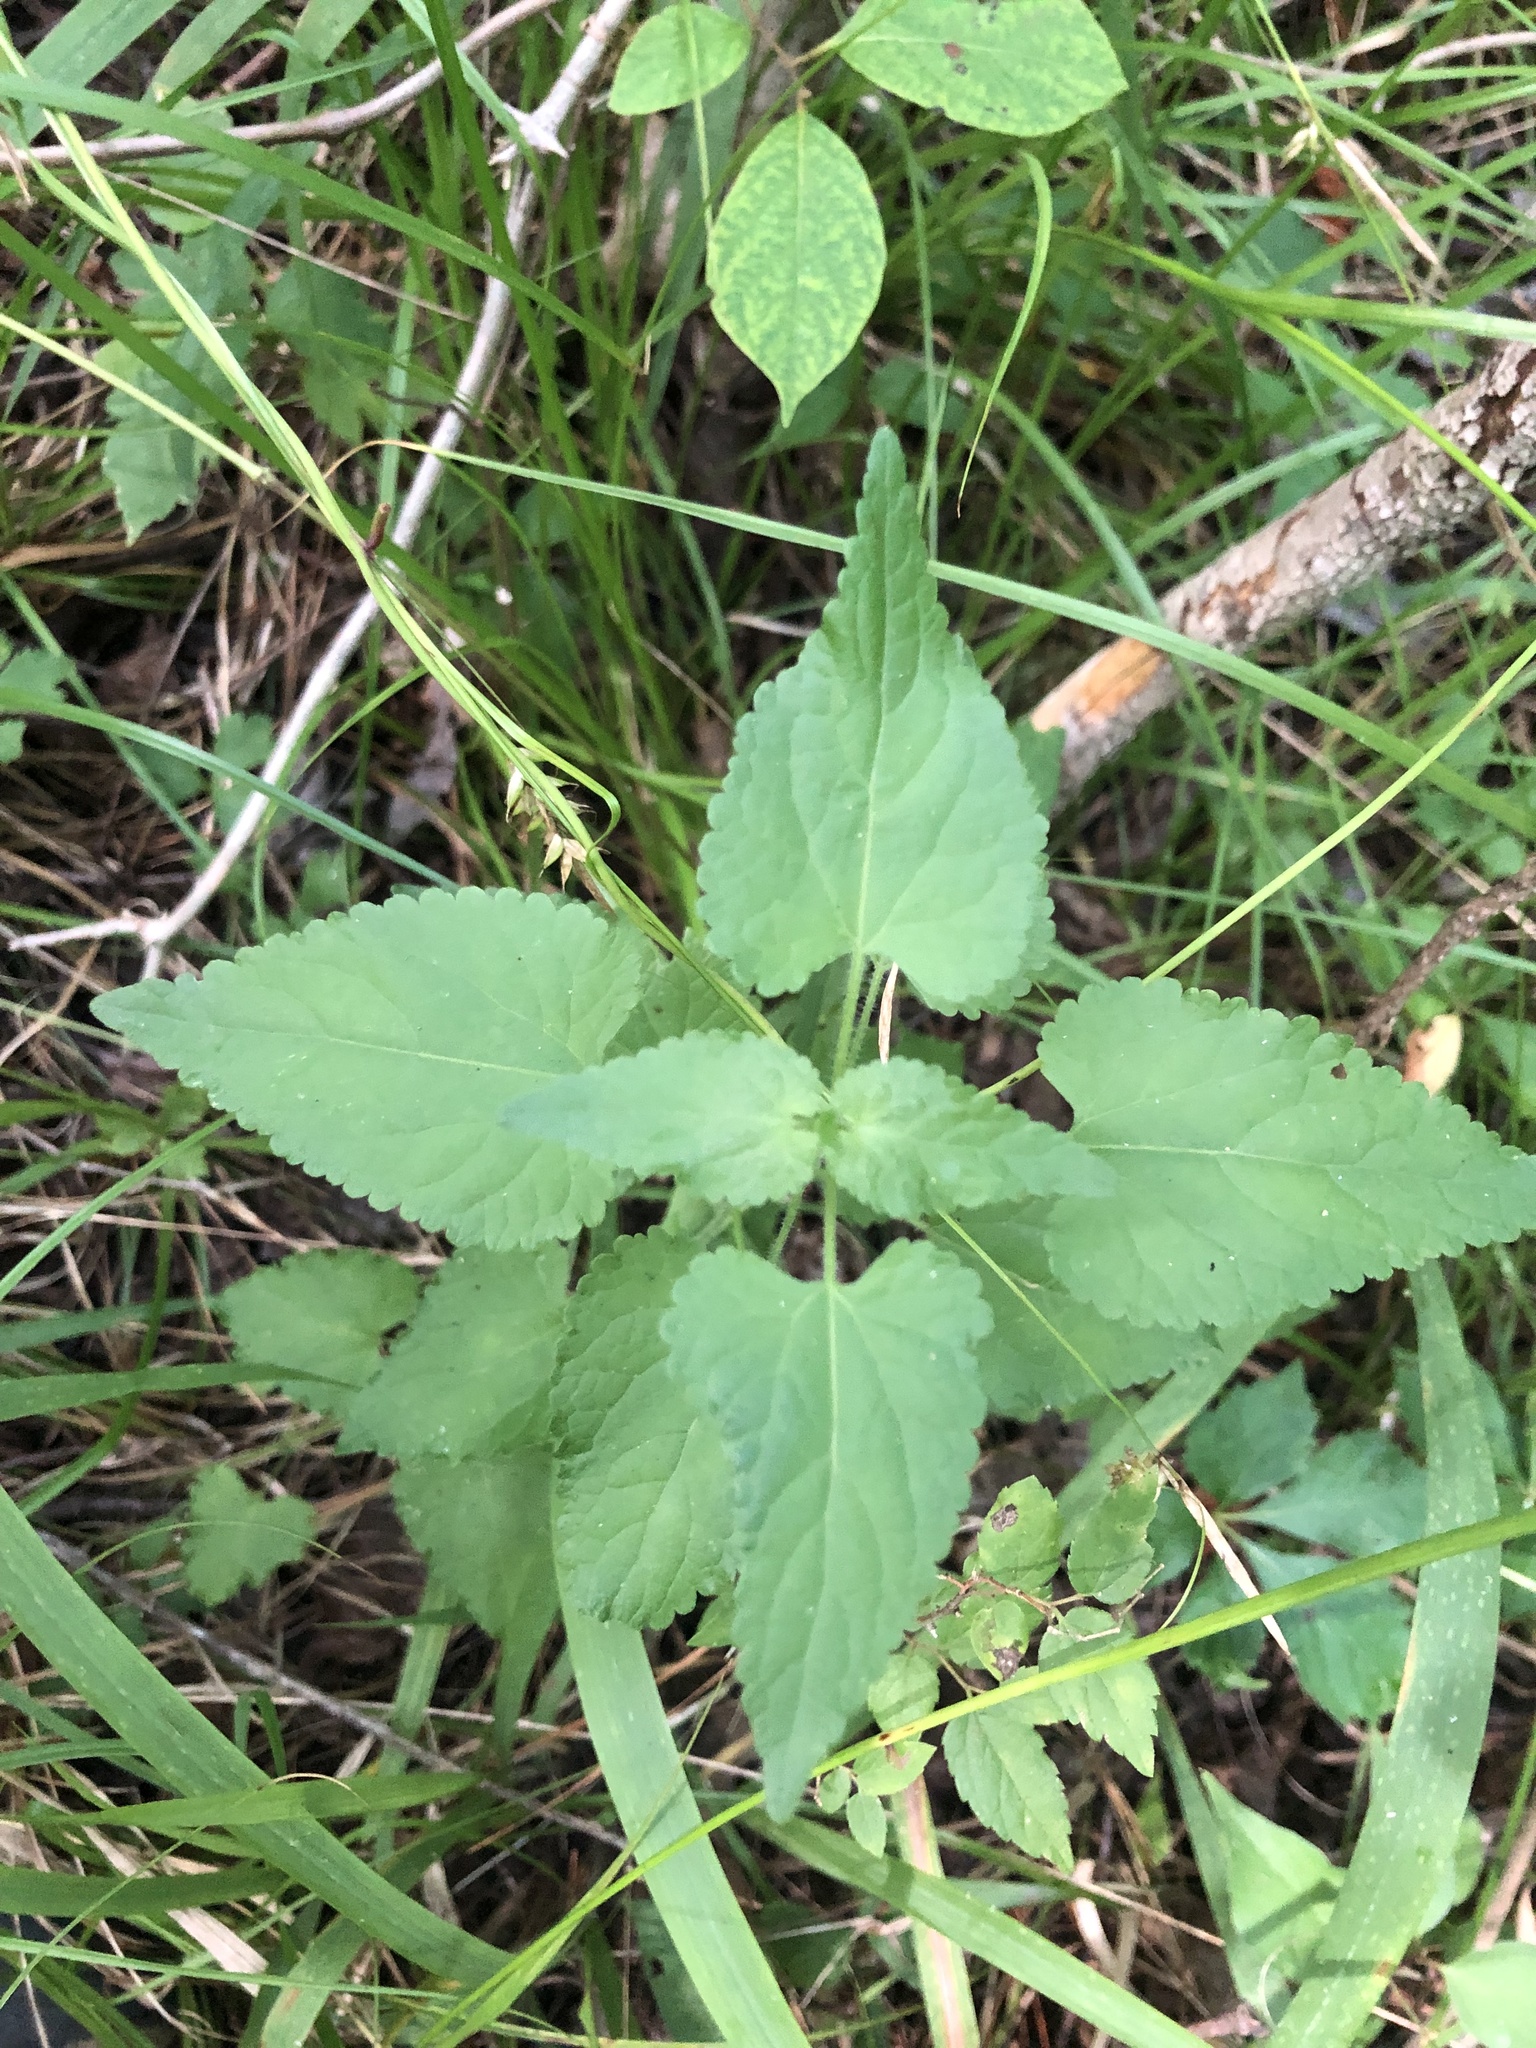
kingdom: Plantae
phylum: Tracheophyta
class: Magnoliopsida
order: Asterales
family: Asteraceae
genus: Fleischmannia
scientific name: Fleischmannia incarnata
